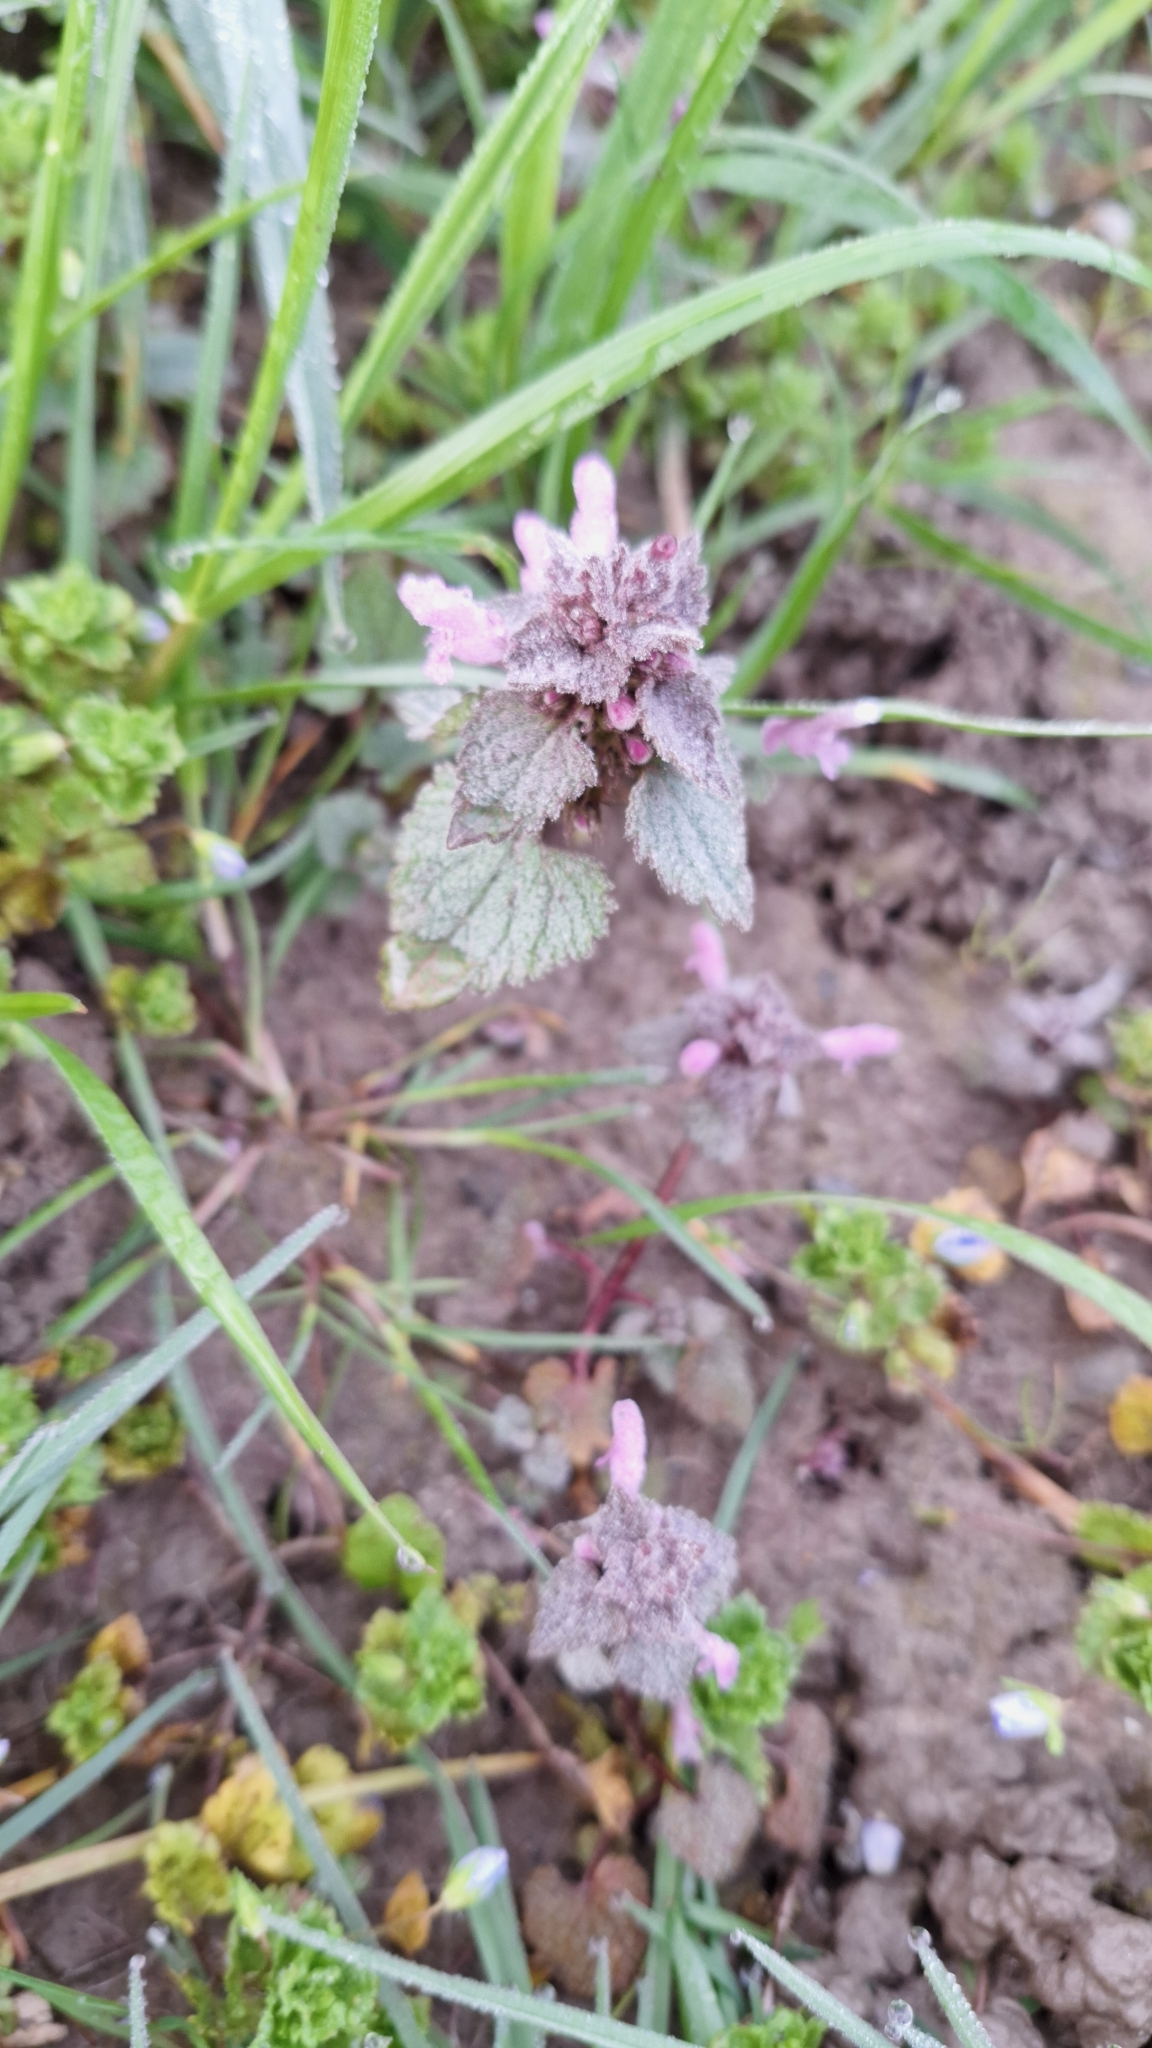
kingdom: Plantae
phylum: Tracheophyta
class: Magnoliopsida
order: Lamiales
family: Lamiaceae
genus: Lamium
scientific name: Lamium purpureum
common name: Red dead-nettle
